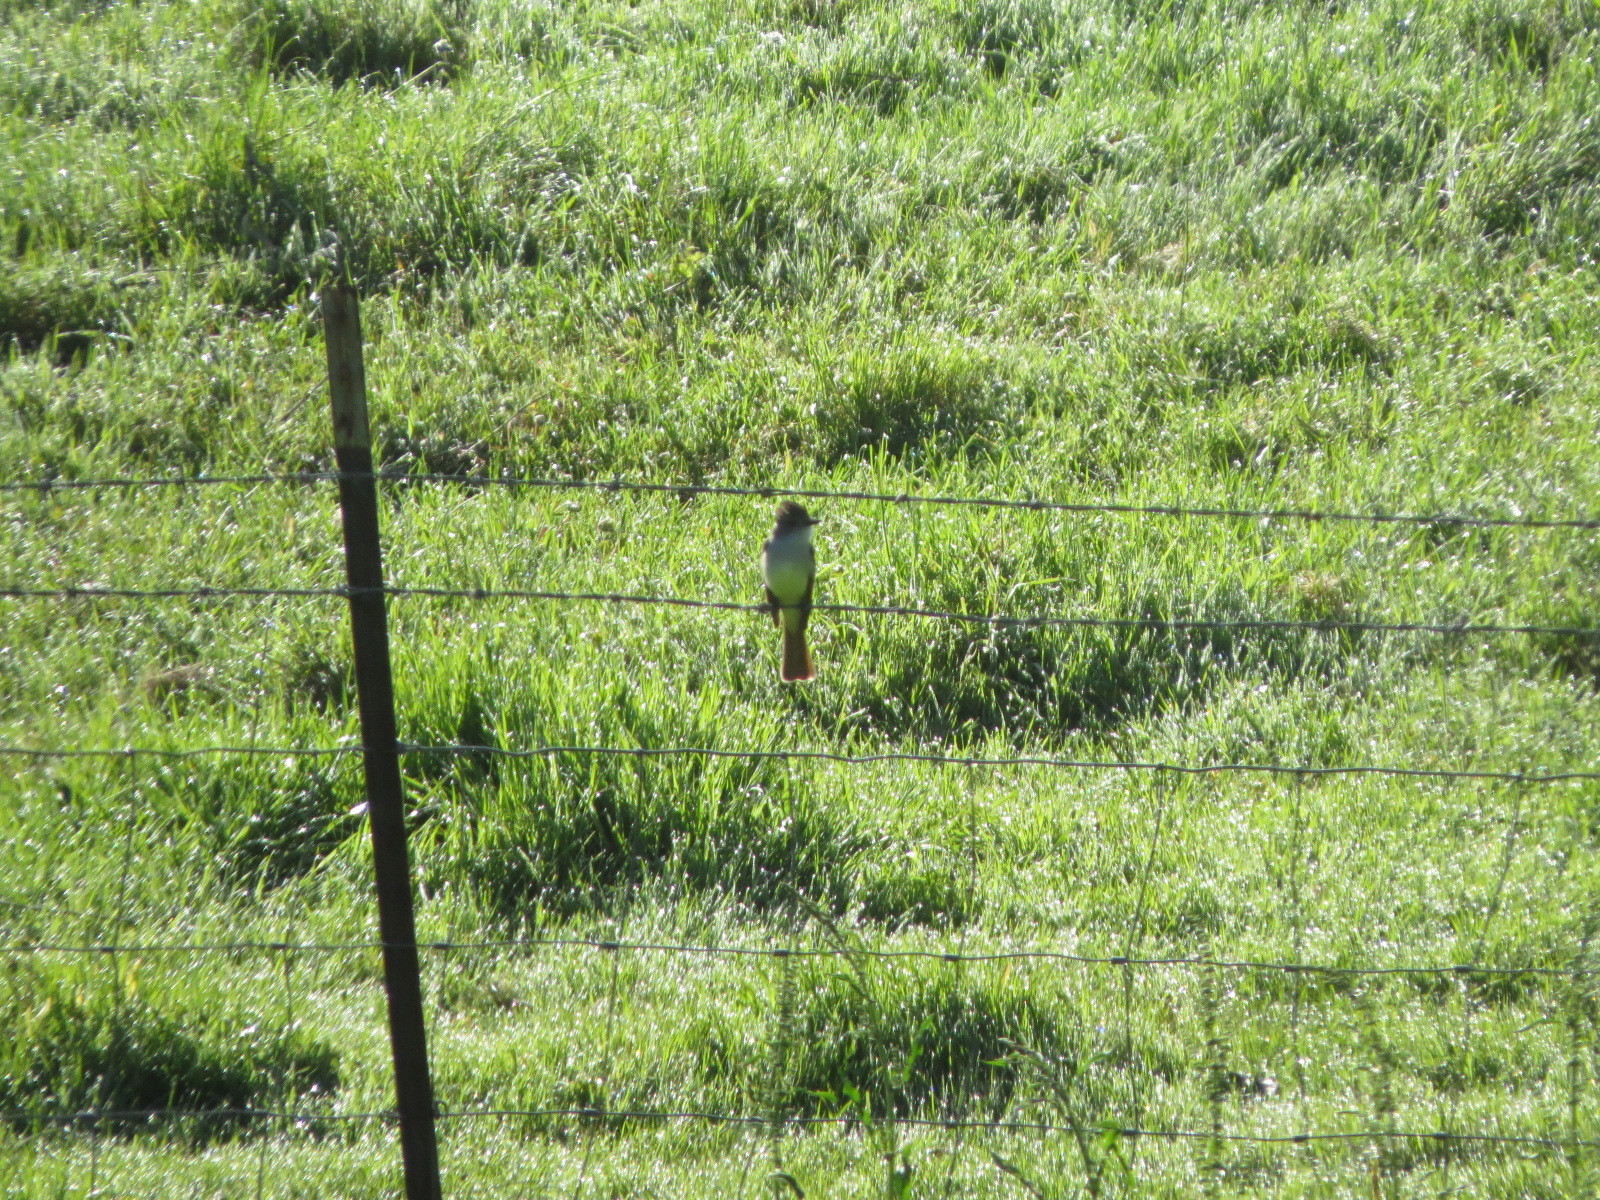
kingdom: Animalia
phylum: Chordata
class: Aves
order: Passeriformes
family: Tyrannidae
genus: Myiarchus
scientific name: Myiarchus cinerascens
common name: Ash-throated flycatcher
